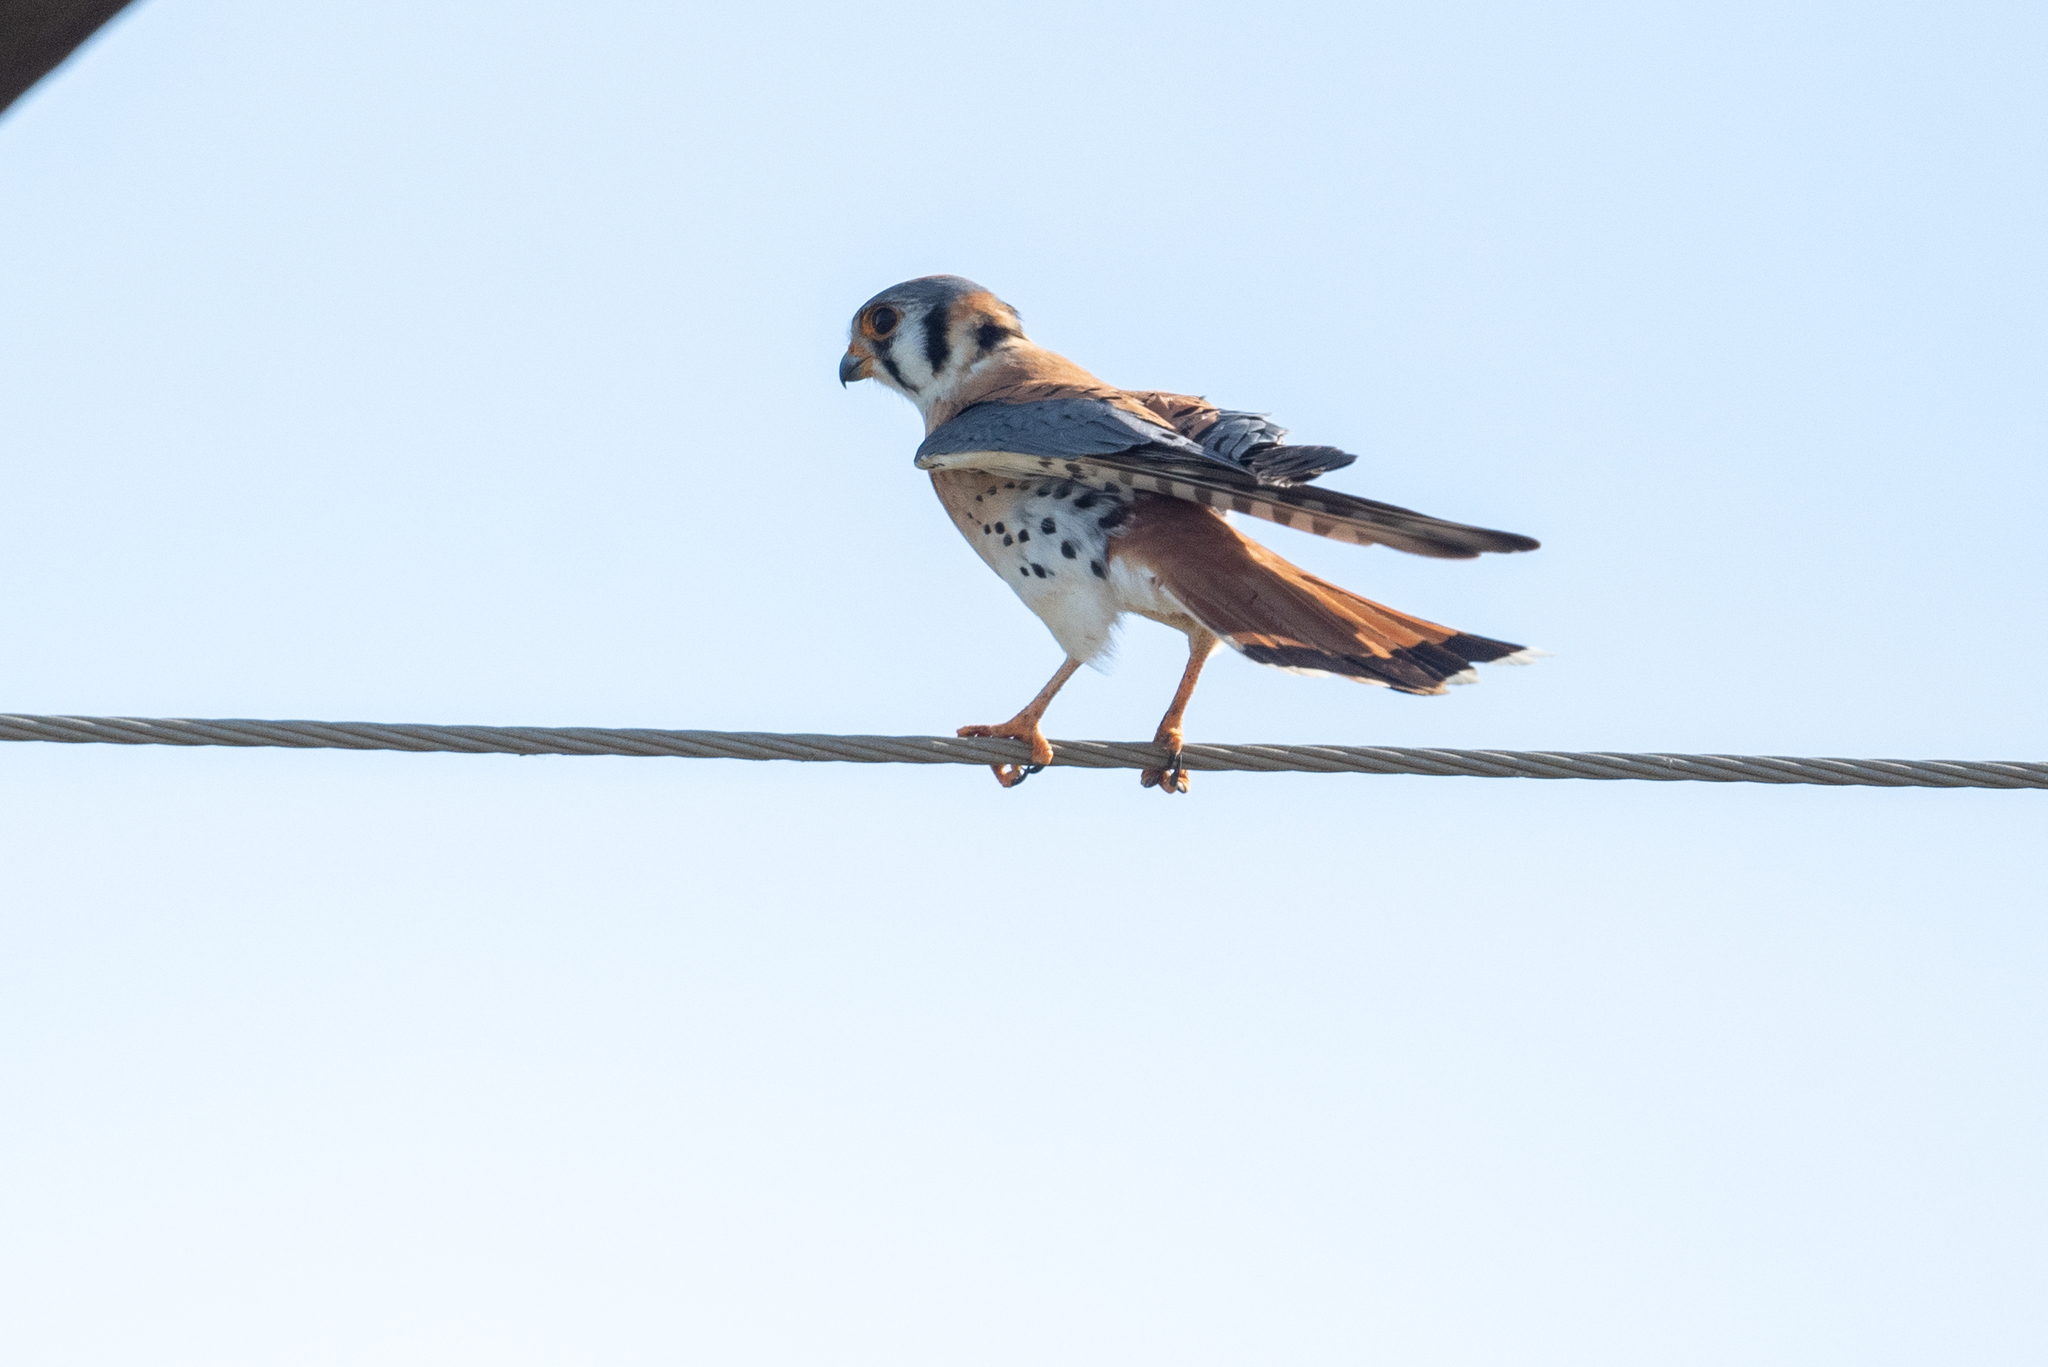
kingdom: Animalia
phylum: Chordata
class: Aves
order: Falconiformes
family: Falconidae
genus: Falco
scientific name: Falco sparverius
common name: American kestrel
